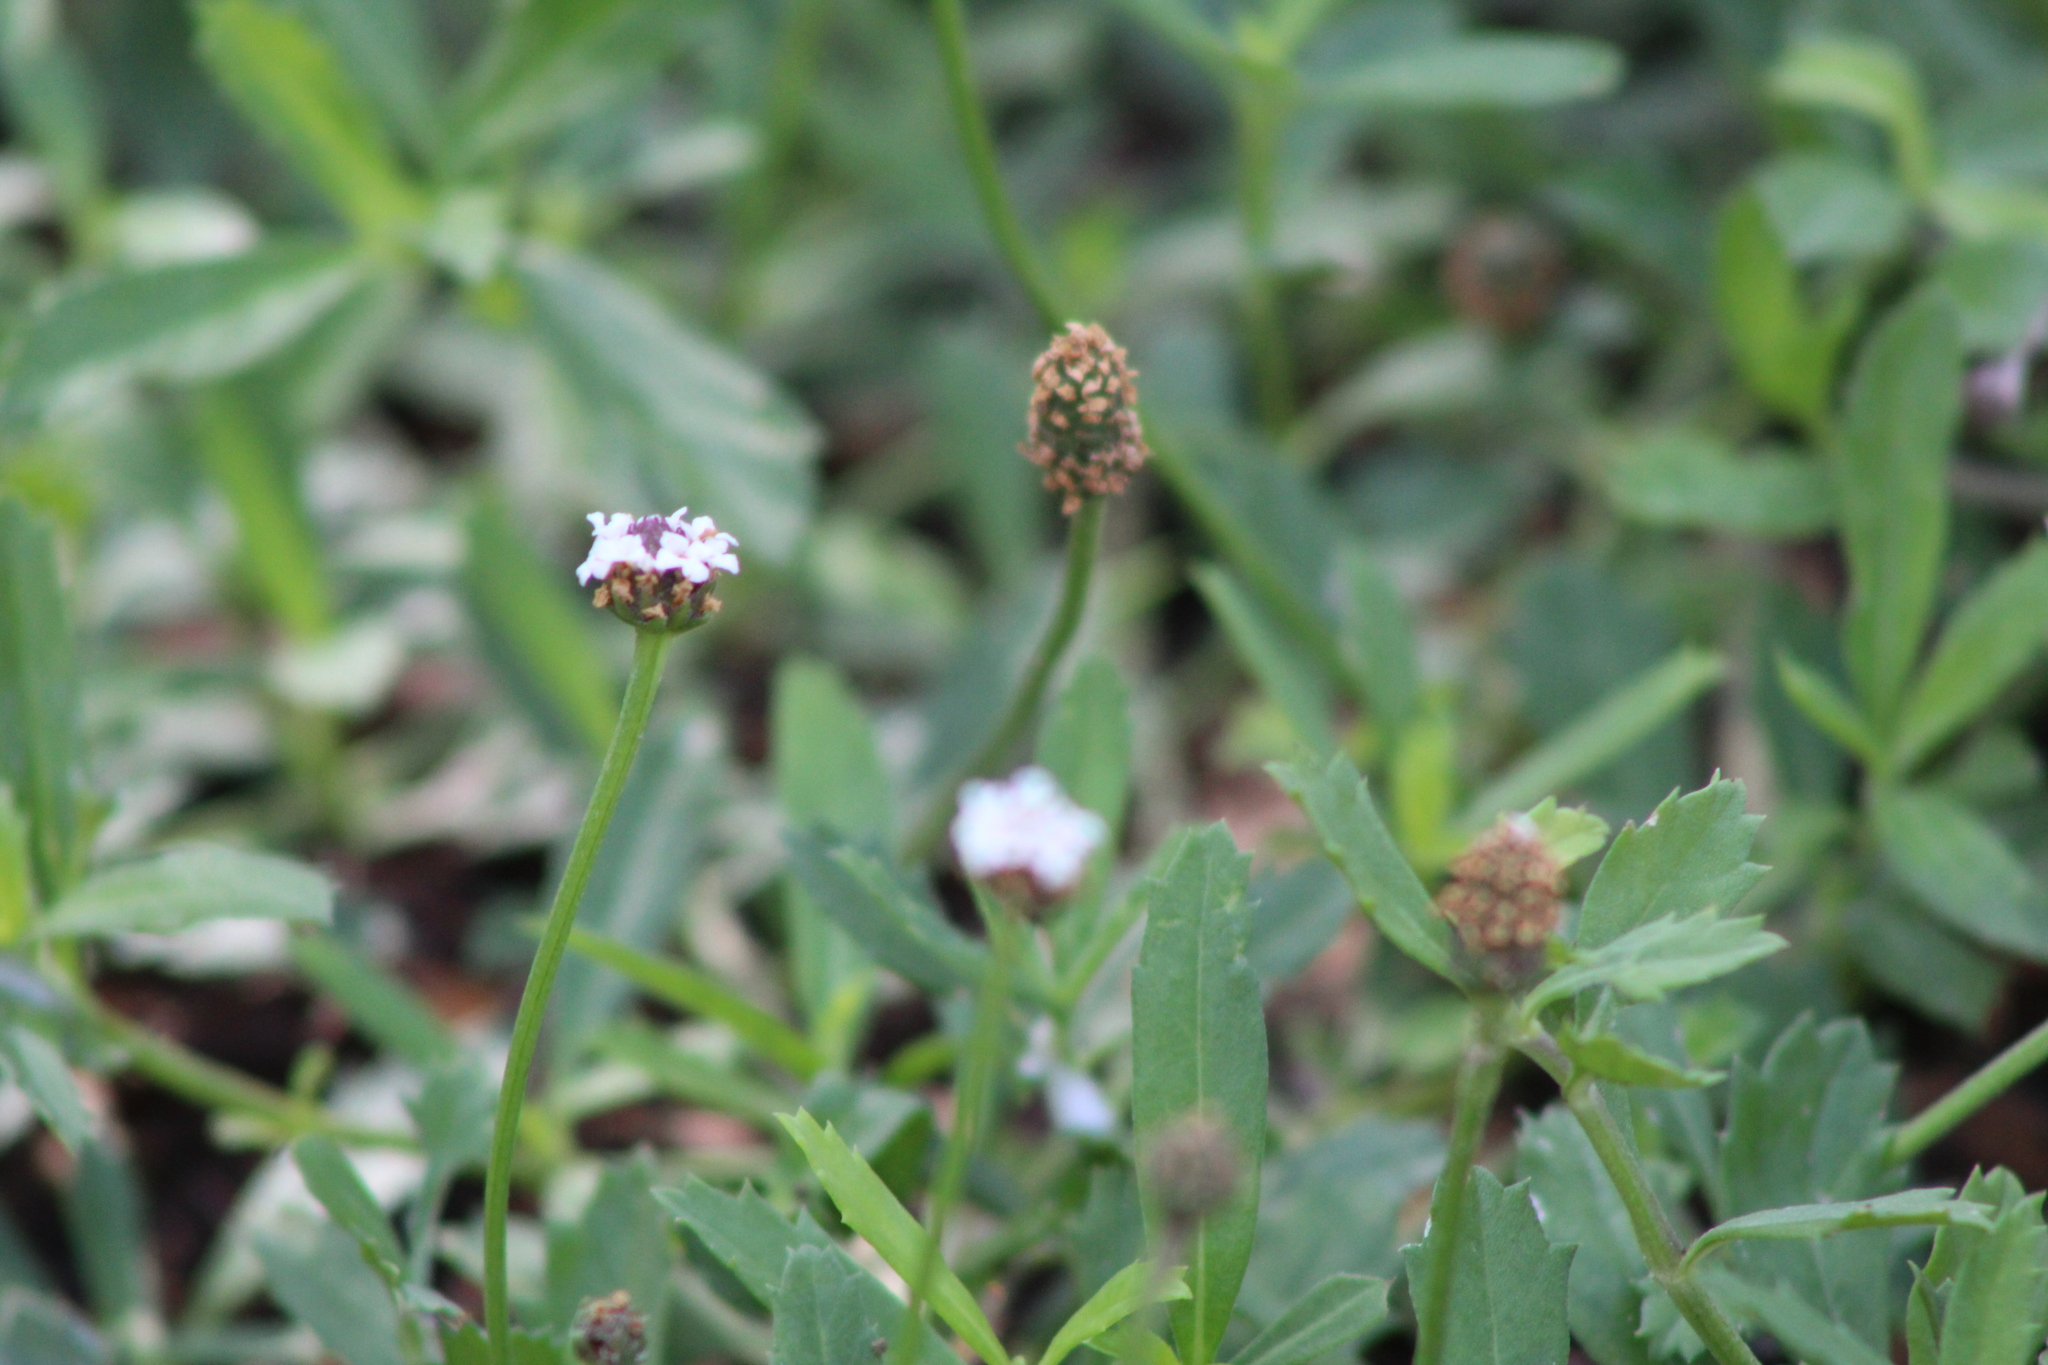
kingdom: Plantae
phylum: Tracheophyta
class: Magnoliopsida
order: Lamiales
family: Verbenaceae
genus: Phyla
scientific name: Phyla nodiflora
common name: Frogfruit
